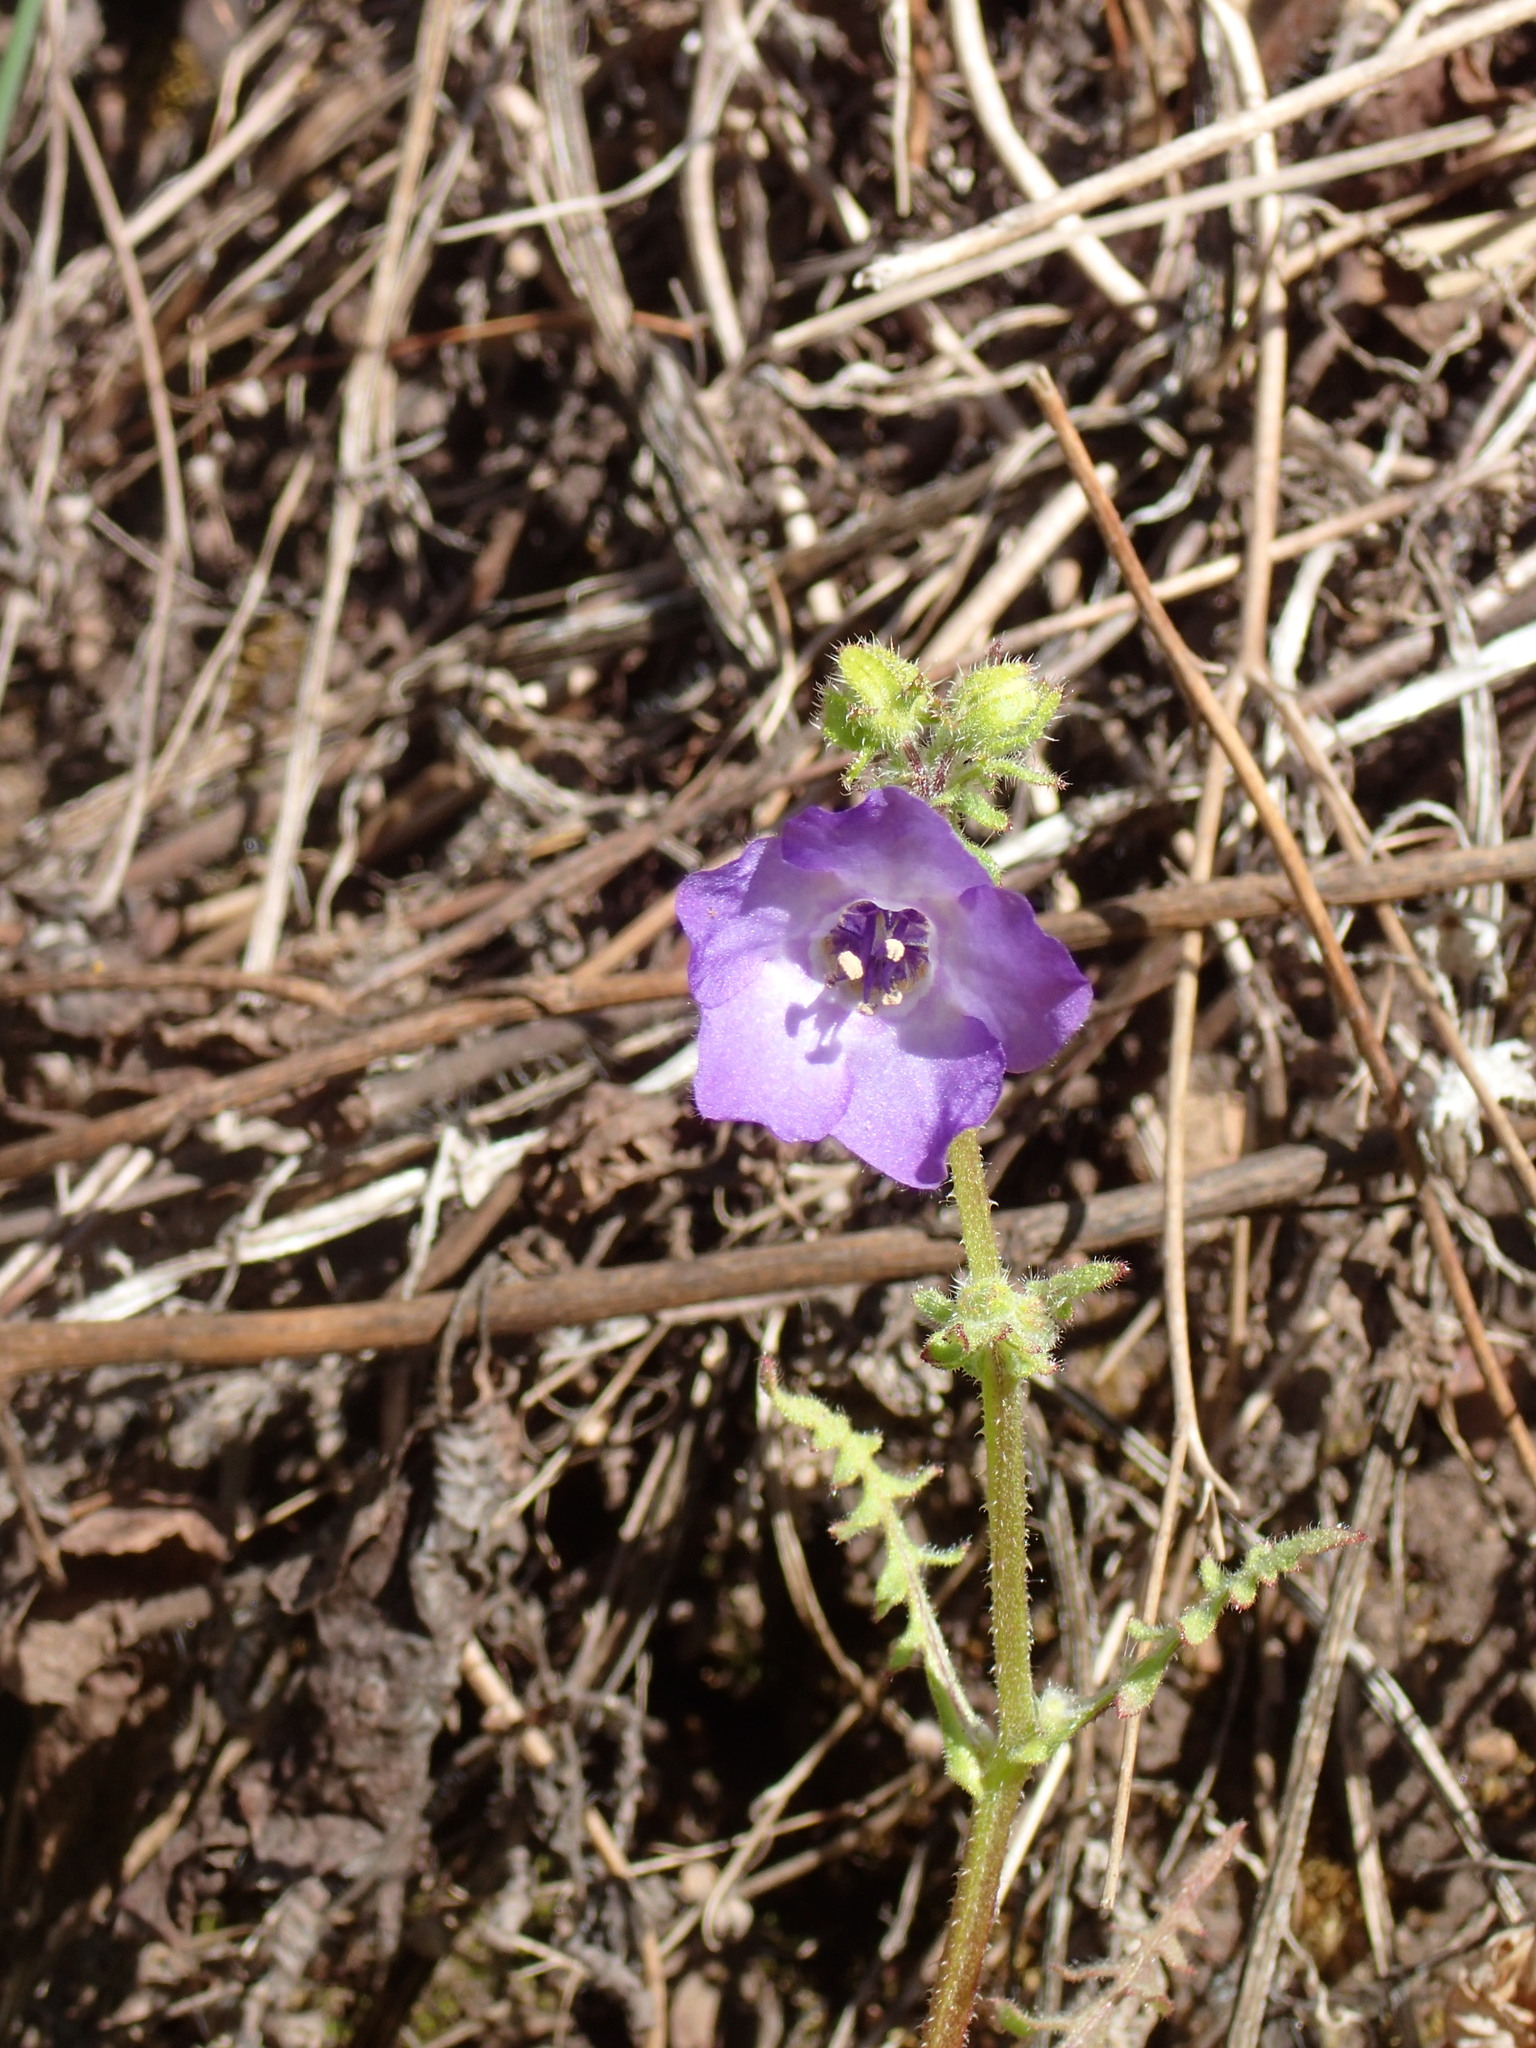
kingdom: Plantae
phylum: Tracheophyta
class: Magnoliopsida
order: Boraginales
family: Hydrophyllaceae
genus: Pholistoma
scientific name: Pholistoma auritum
